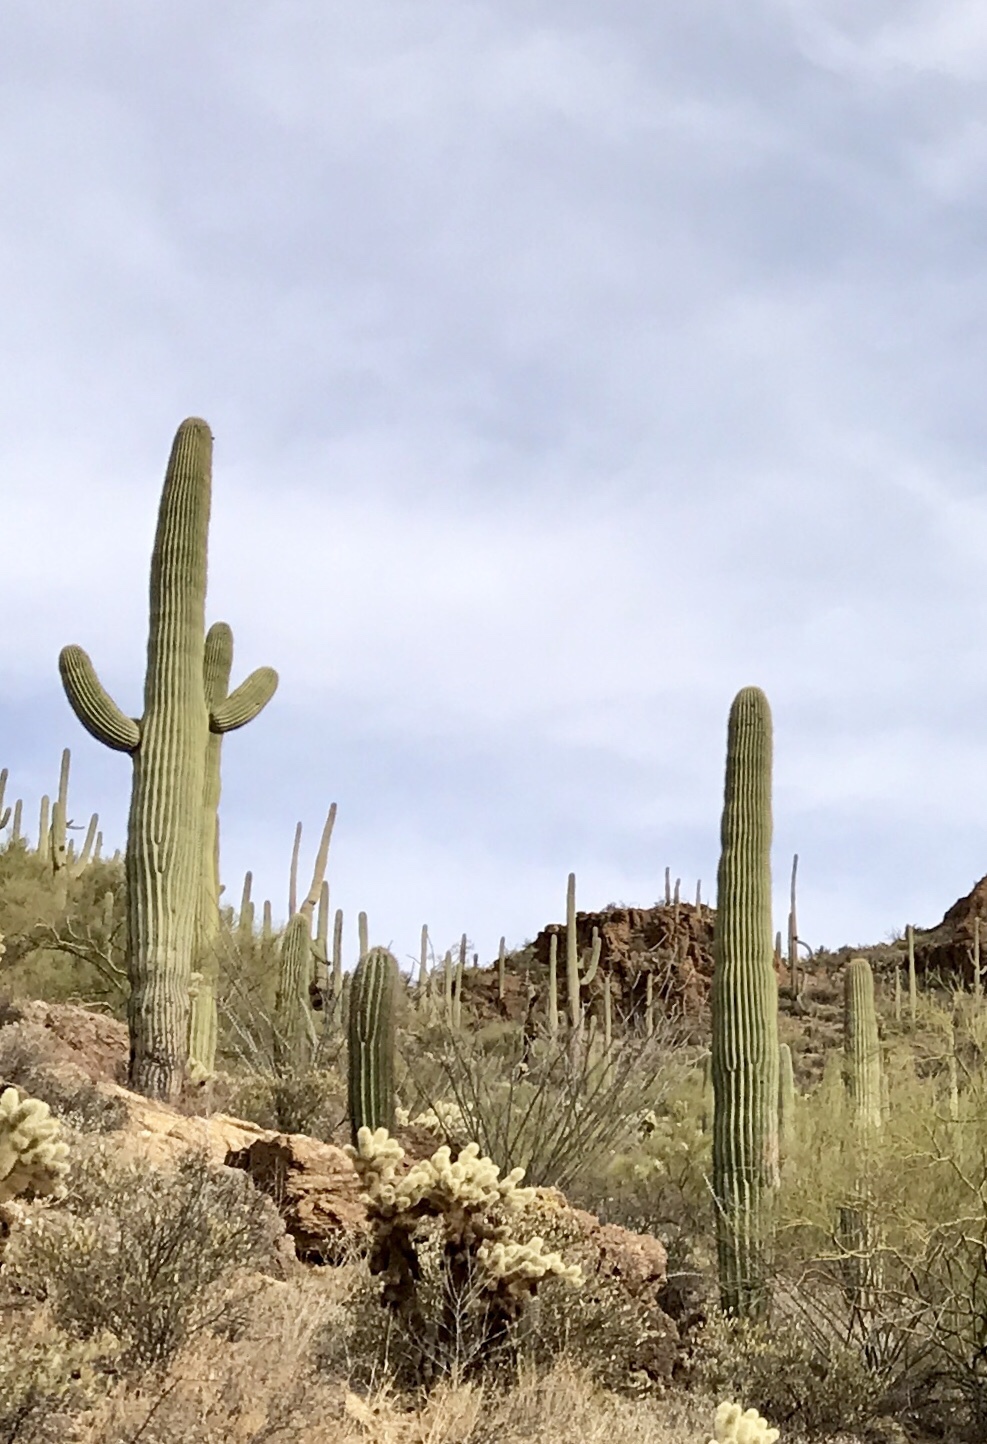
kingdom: Plantae
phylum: Tracheophyta
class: Magnoliopsida
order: Caryophyllales
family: Cactaceae
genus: Carnegiea
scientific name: Carnegiea gigantea
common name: Saguaro
